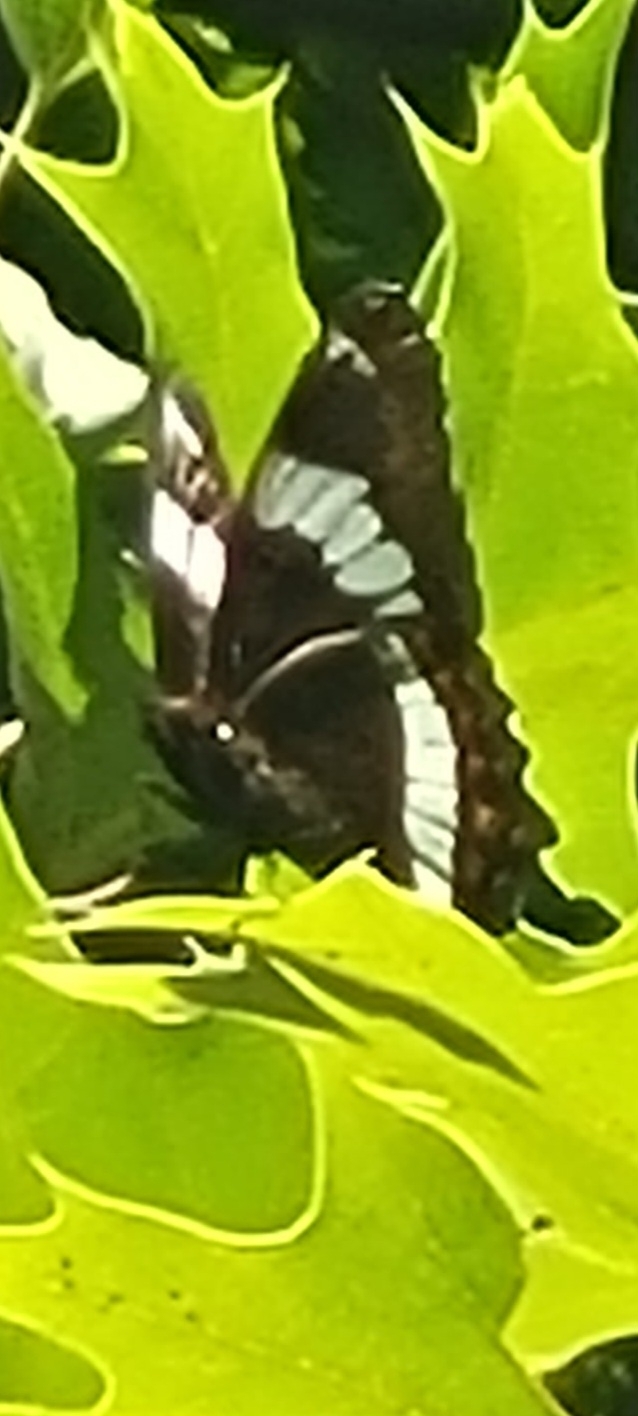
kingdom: Animalia
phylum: Arthropoda
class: Insecta
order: Lepidoptera
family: Nymphalidae
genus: Limenitis
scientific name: Limenitis arthemis
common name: Red-spotted admiral
